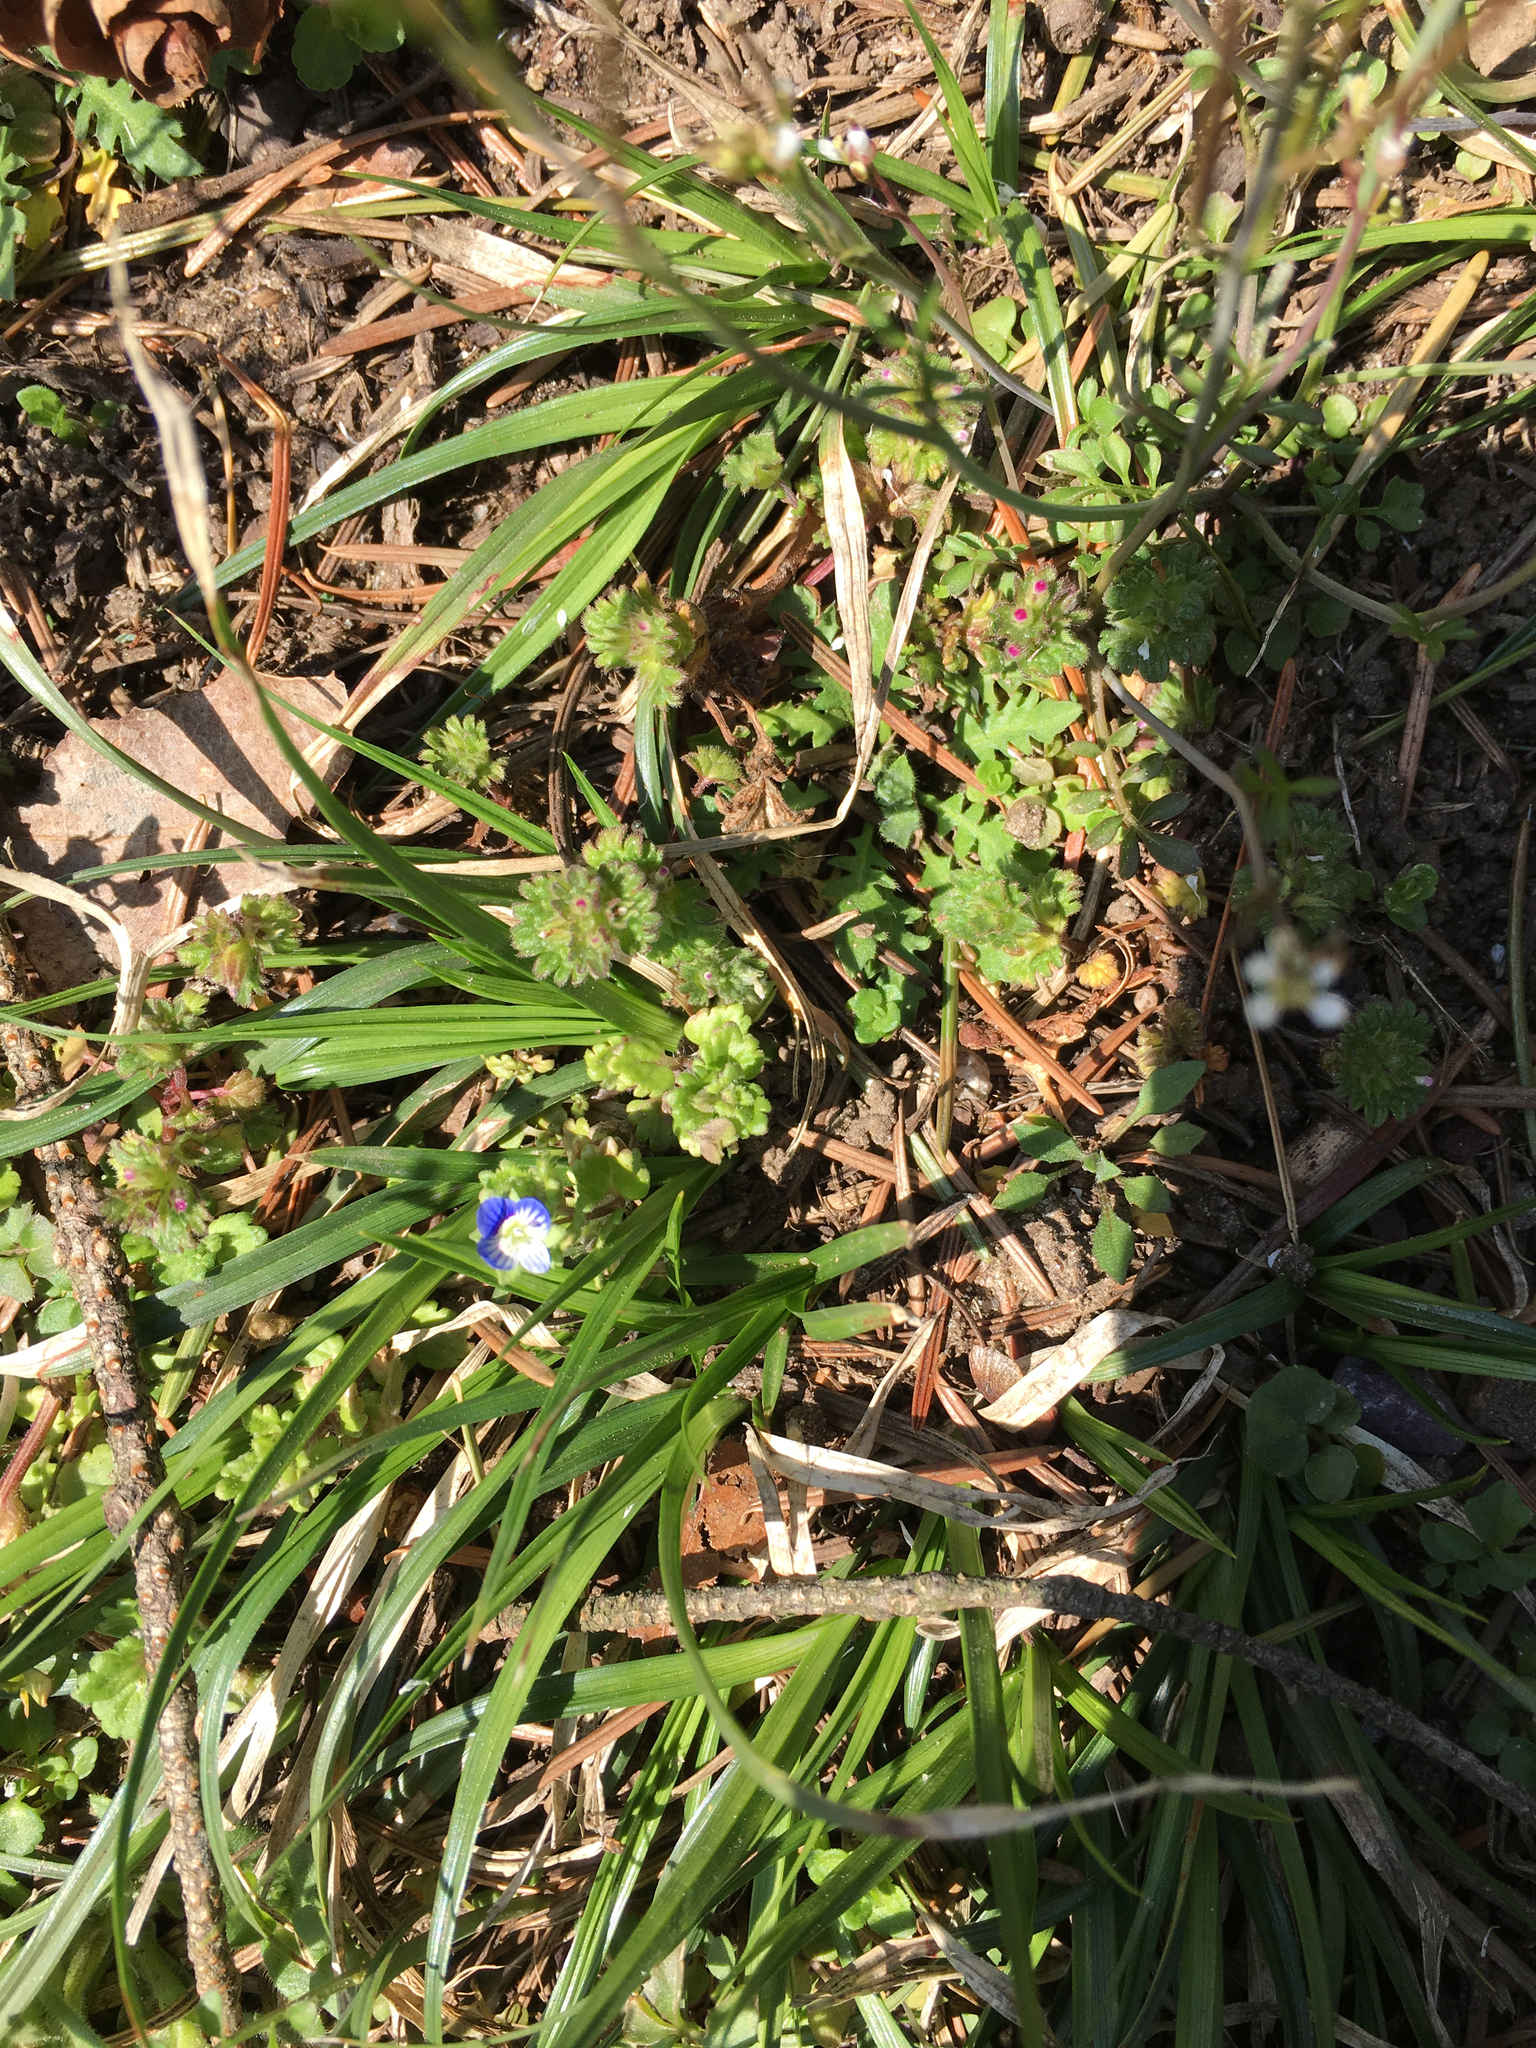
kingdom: Plantae
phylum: Tracheophyta
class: Magnoliopsida
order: Lamiales
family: Plantaginaceae
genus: Veronica
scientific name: Veronica polita
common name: Grey field-speedwell
